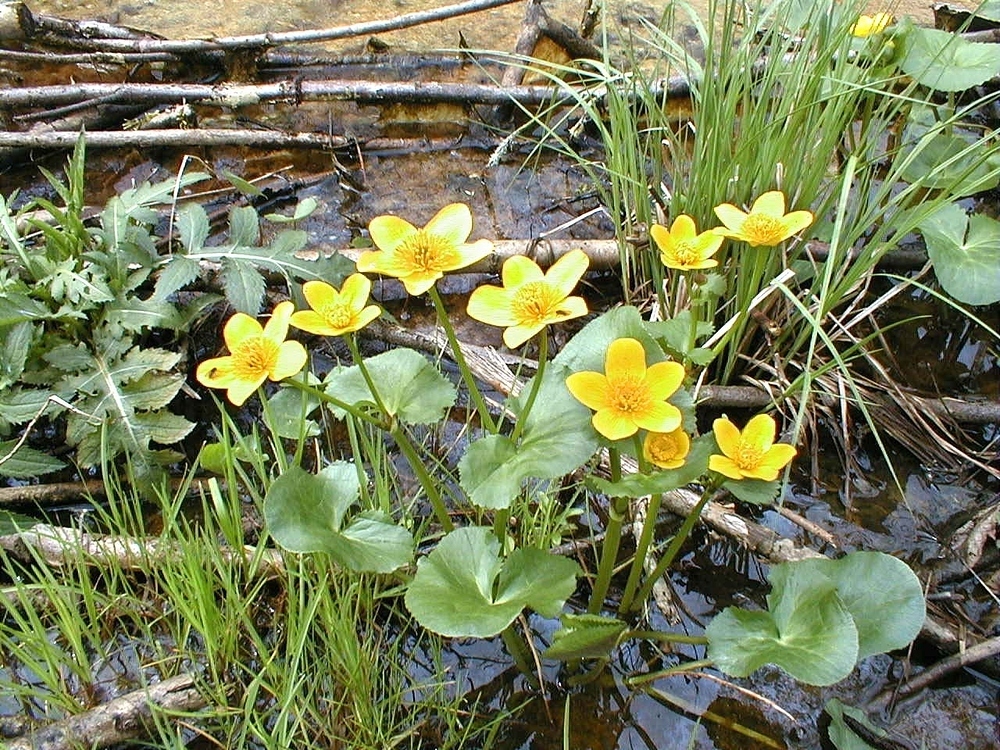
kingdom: Plantae
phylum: Tracheophyta
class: Magnoliopsida
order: Ranunculales
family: Ranunculaceae
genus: Caltha
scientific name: Caltha palustris
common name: Marsh marigold
